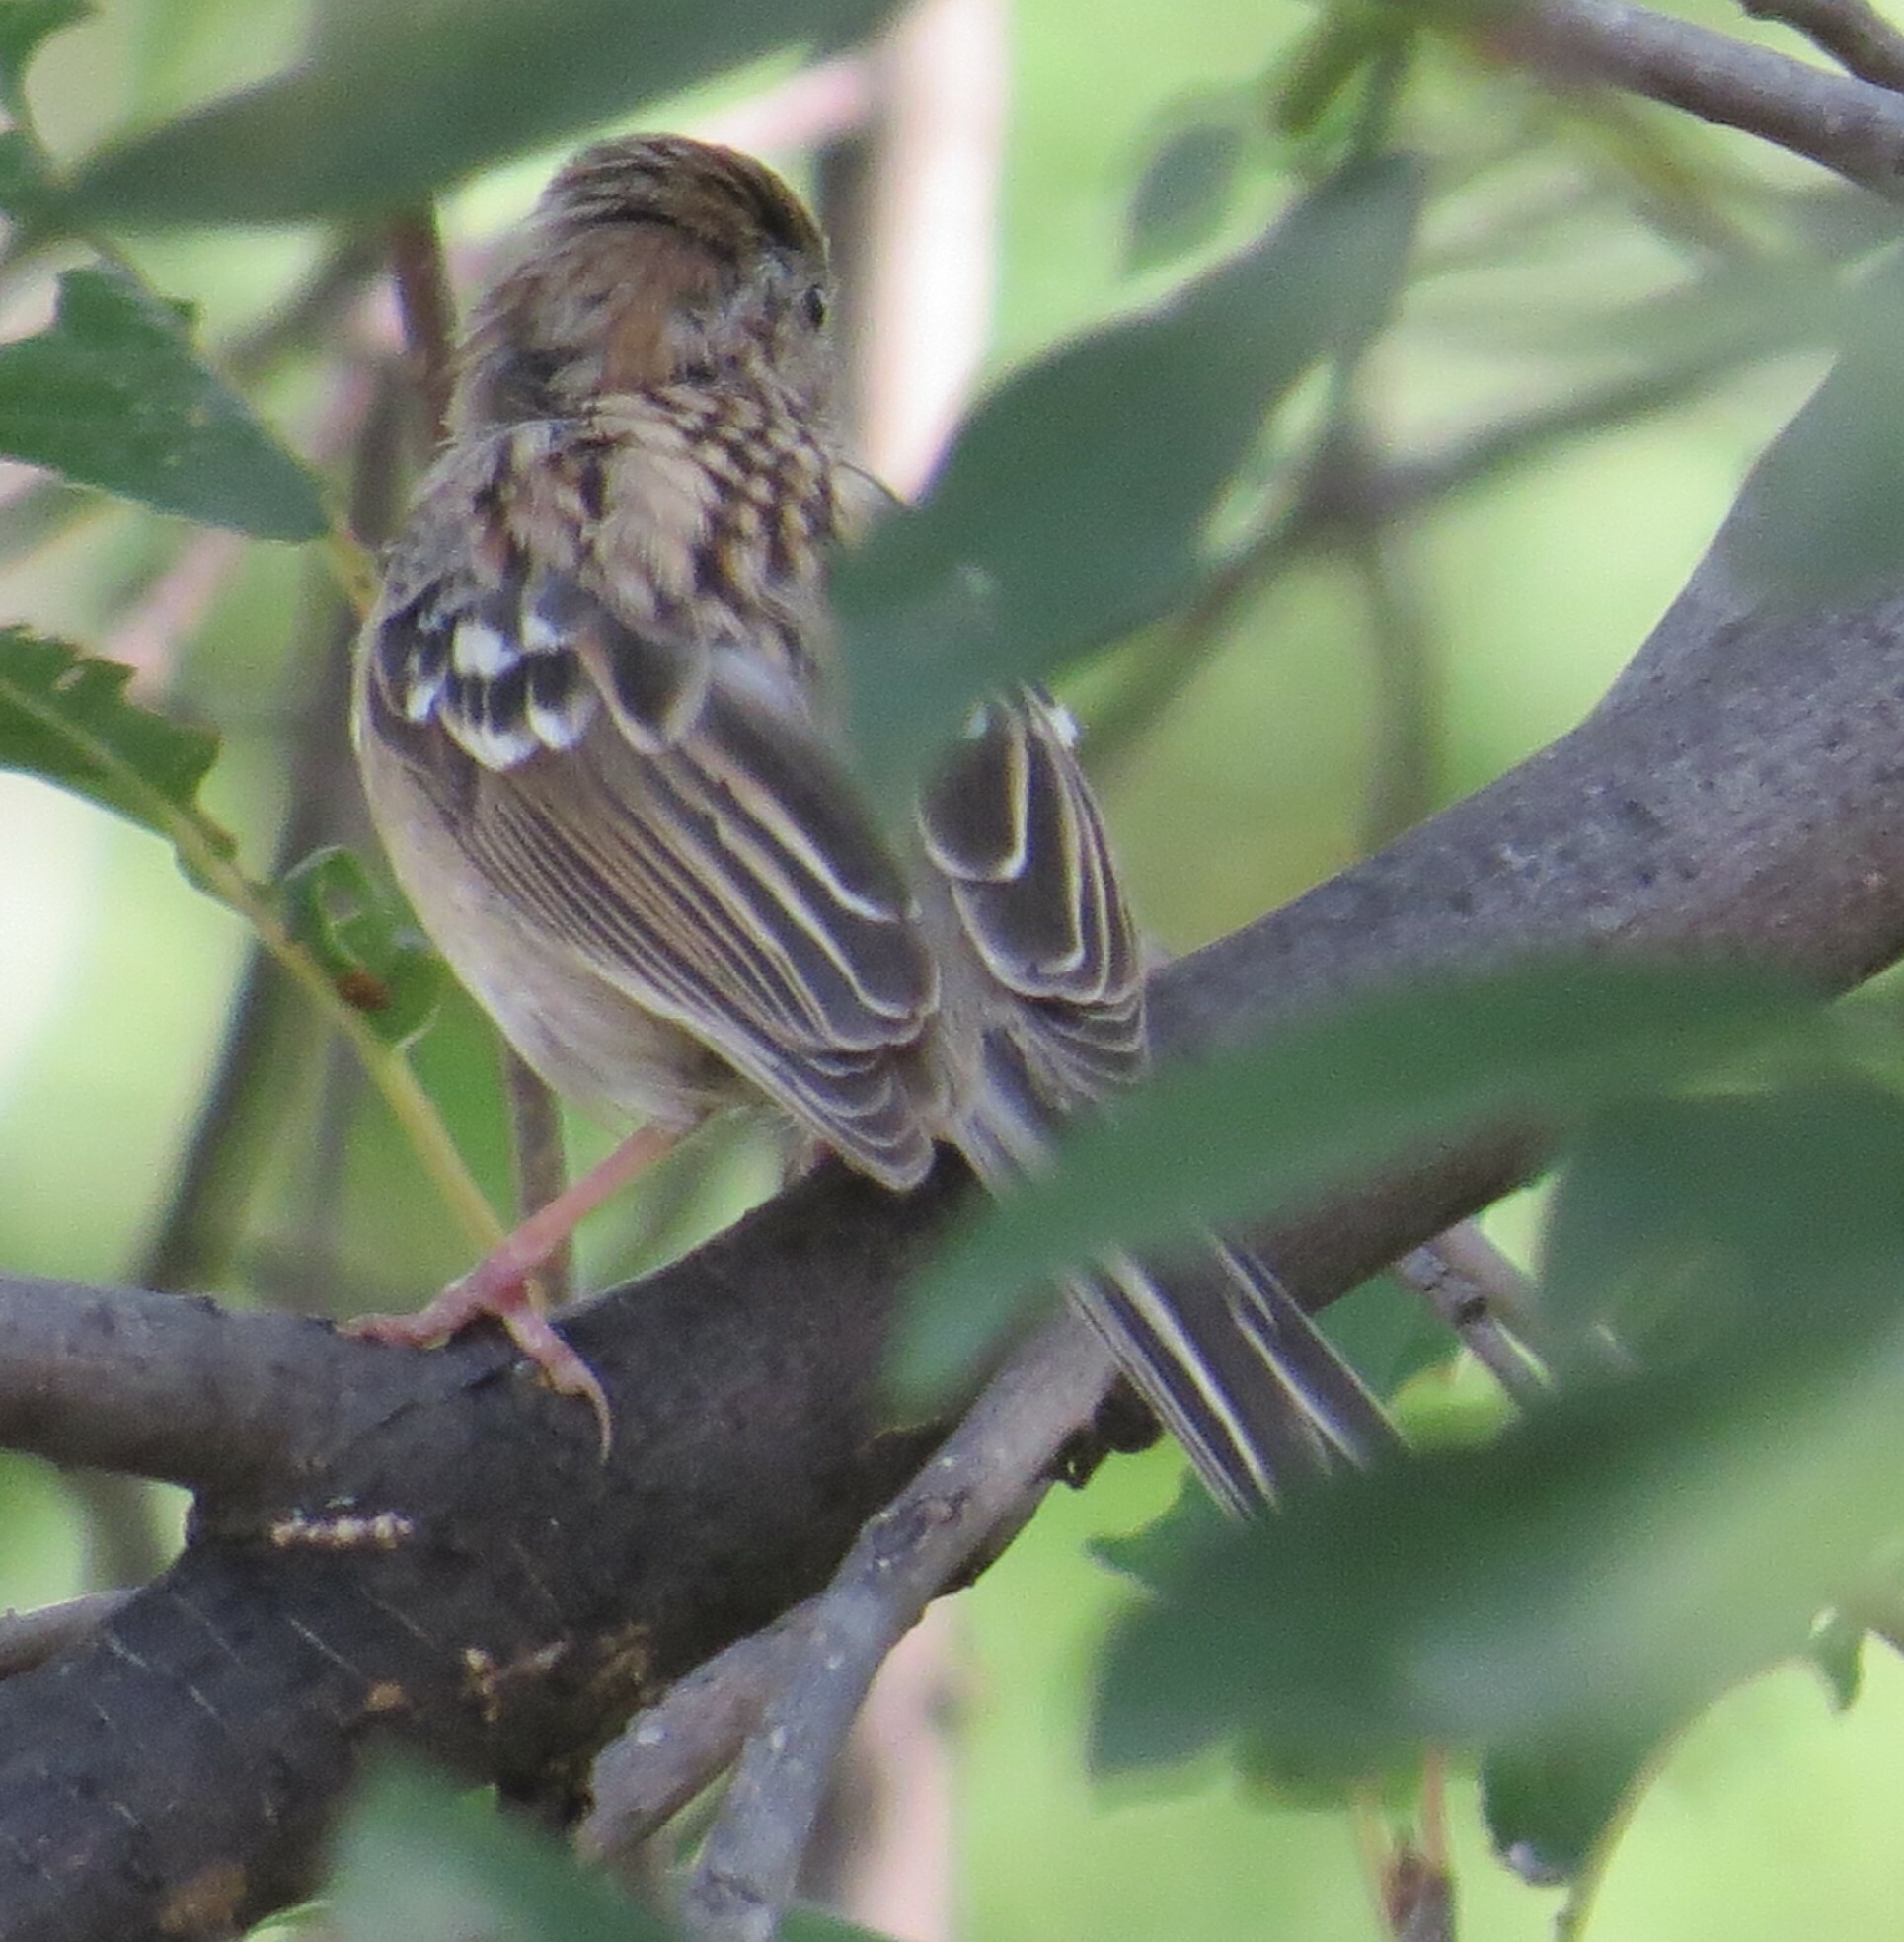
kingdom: Animalia
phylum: Chordata
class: Aves
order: Passeriformes
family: Passerellidae
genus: Spizella
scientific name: Spizella pusilla
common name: Field sparrow
